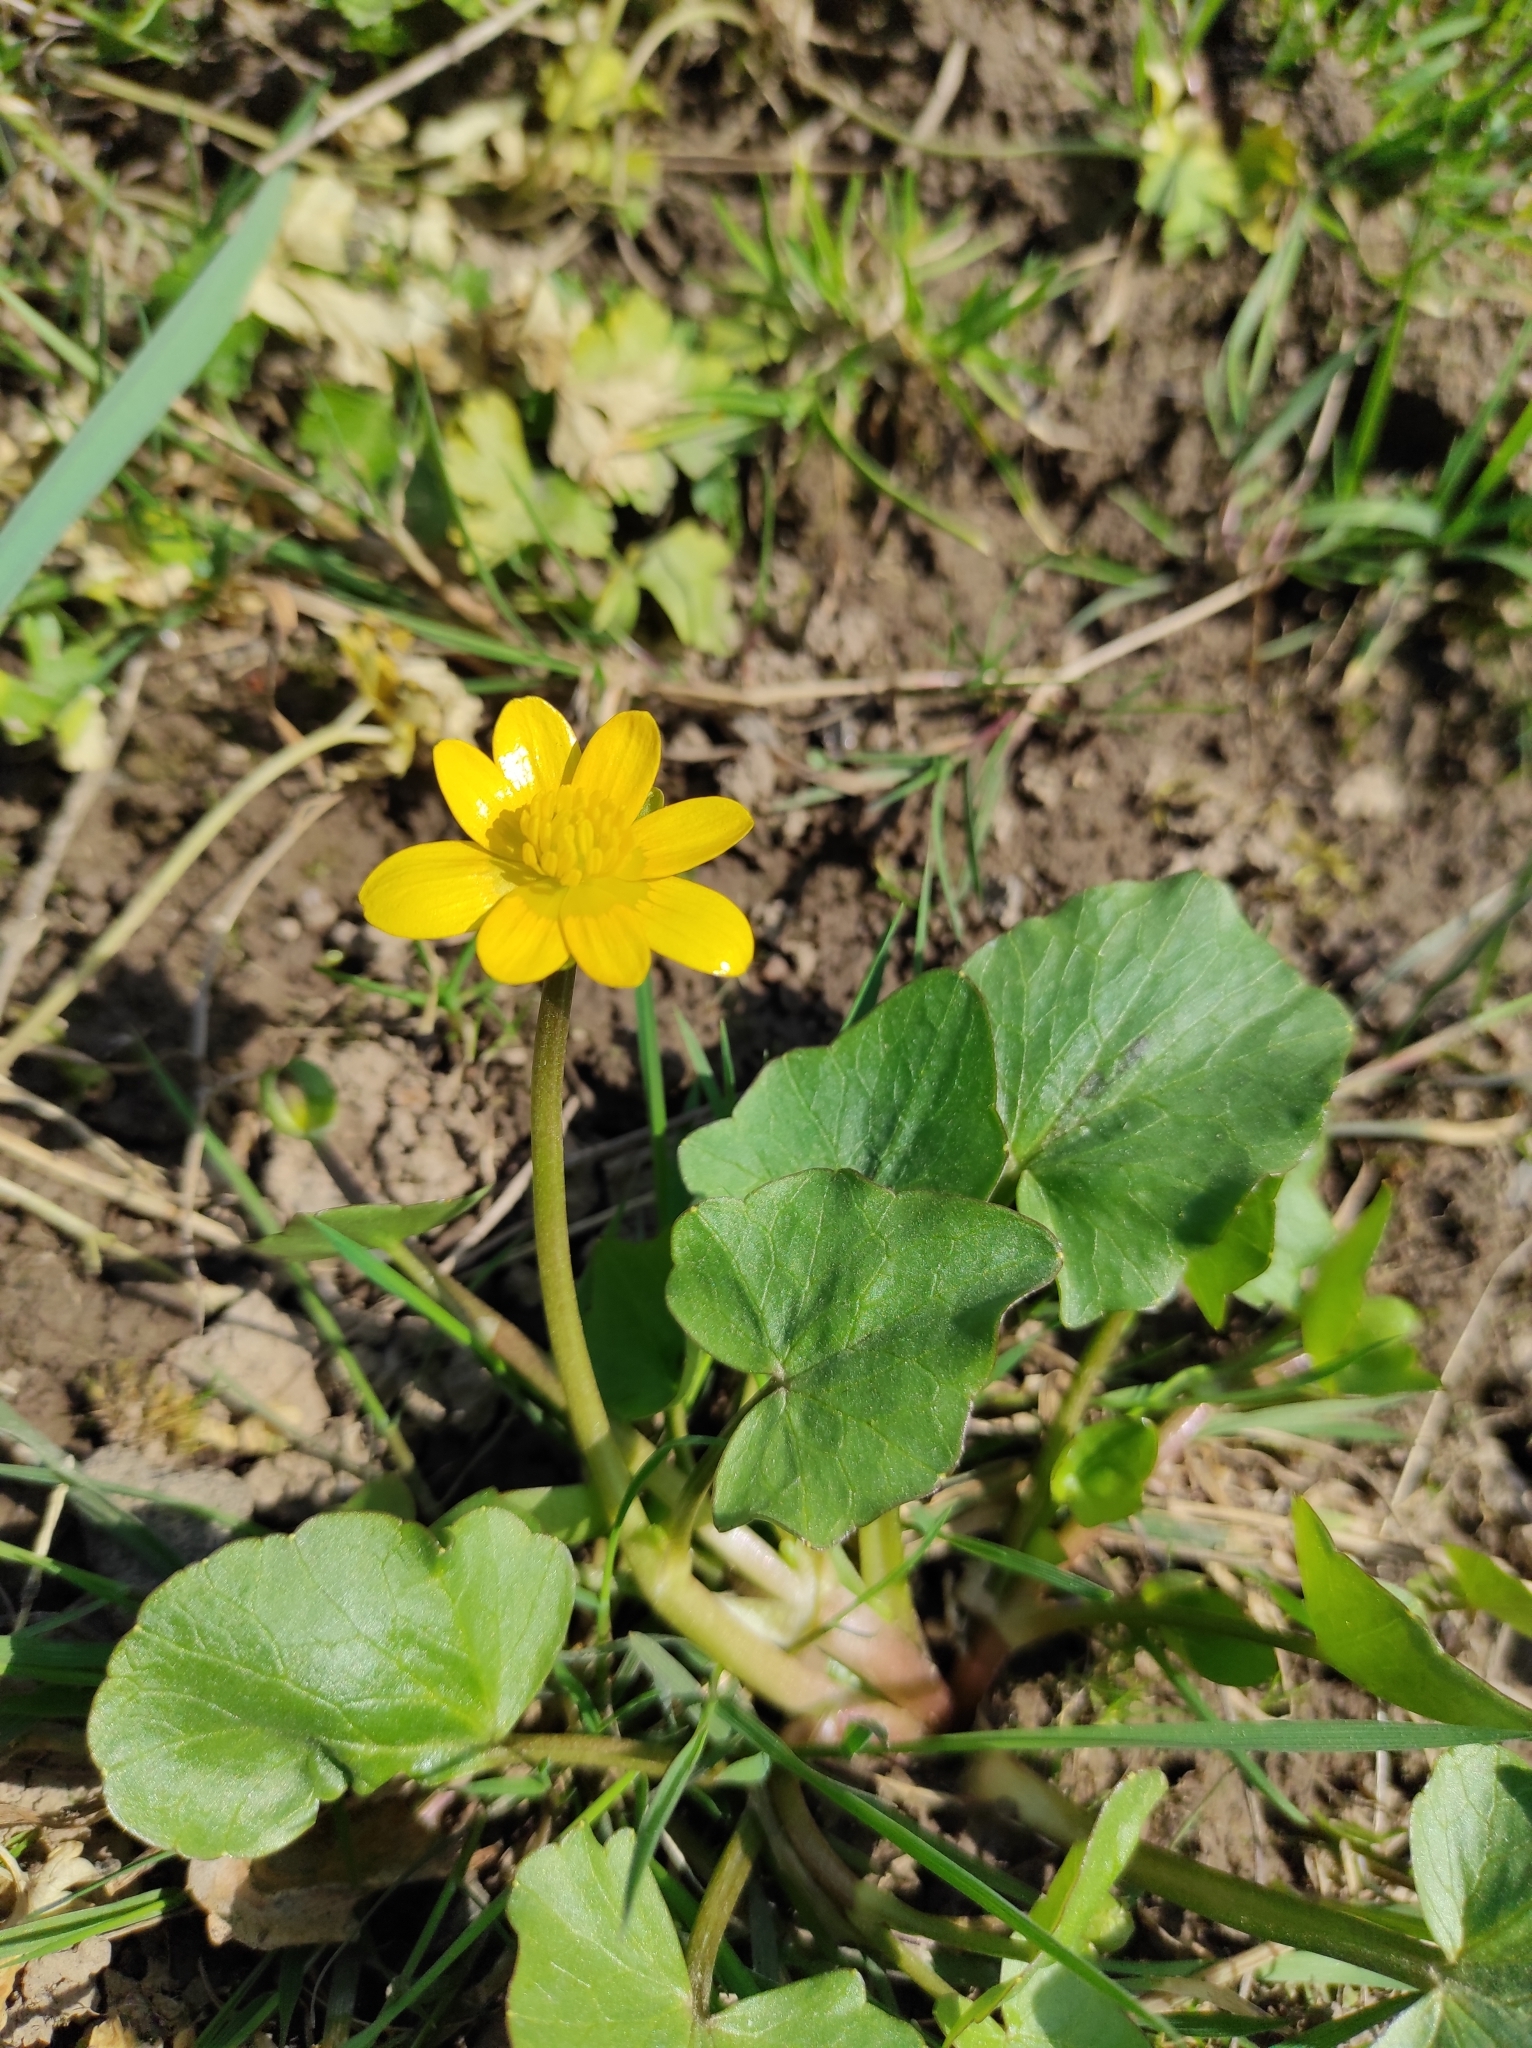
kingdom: Plantae
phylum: Tracheophyta
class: Magnoliopsida
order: Ranunculales
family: Ranunculaceae
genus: Ficaria
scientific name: Ficaria verna
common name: Lesser celandine
